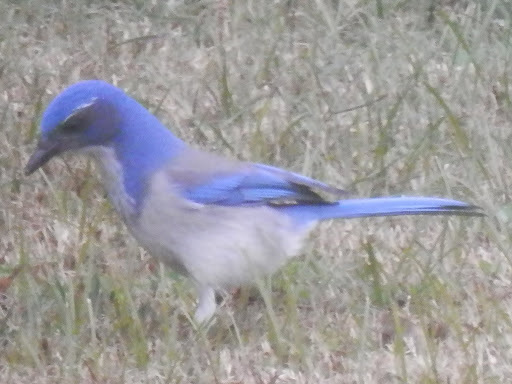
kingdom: Animalia
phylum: Chordata
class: Aves
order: Passeriformes
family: Corvidae
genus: Aphelocoma
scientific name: Aphelocoma californica
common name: California scrub-jay
